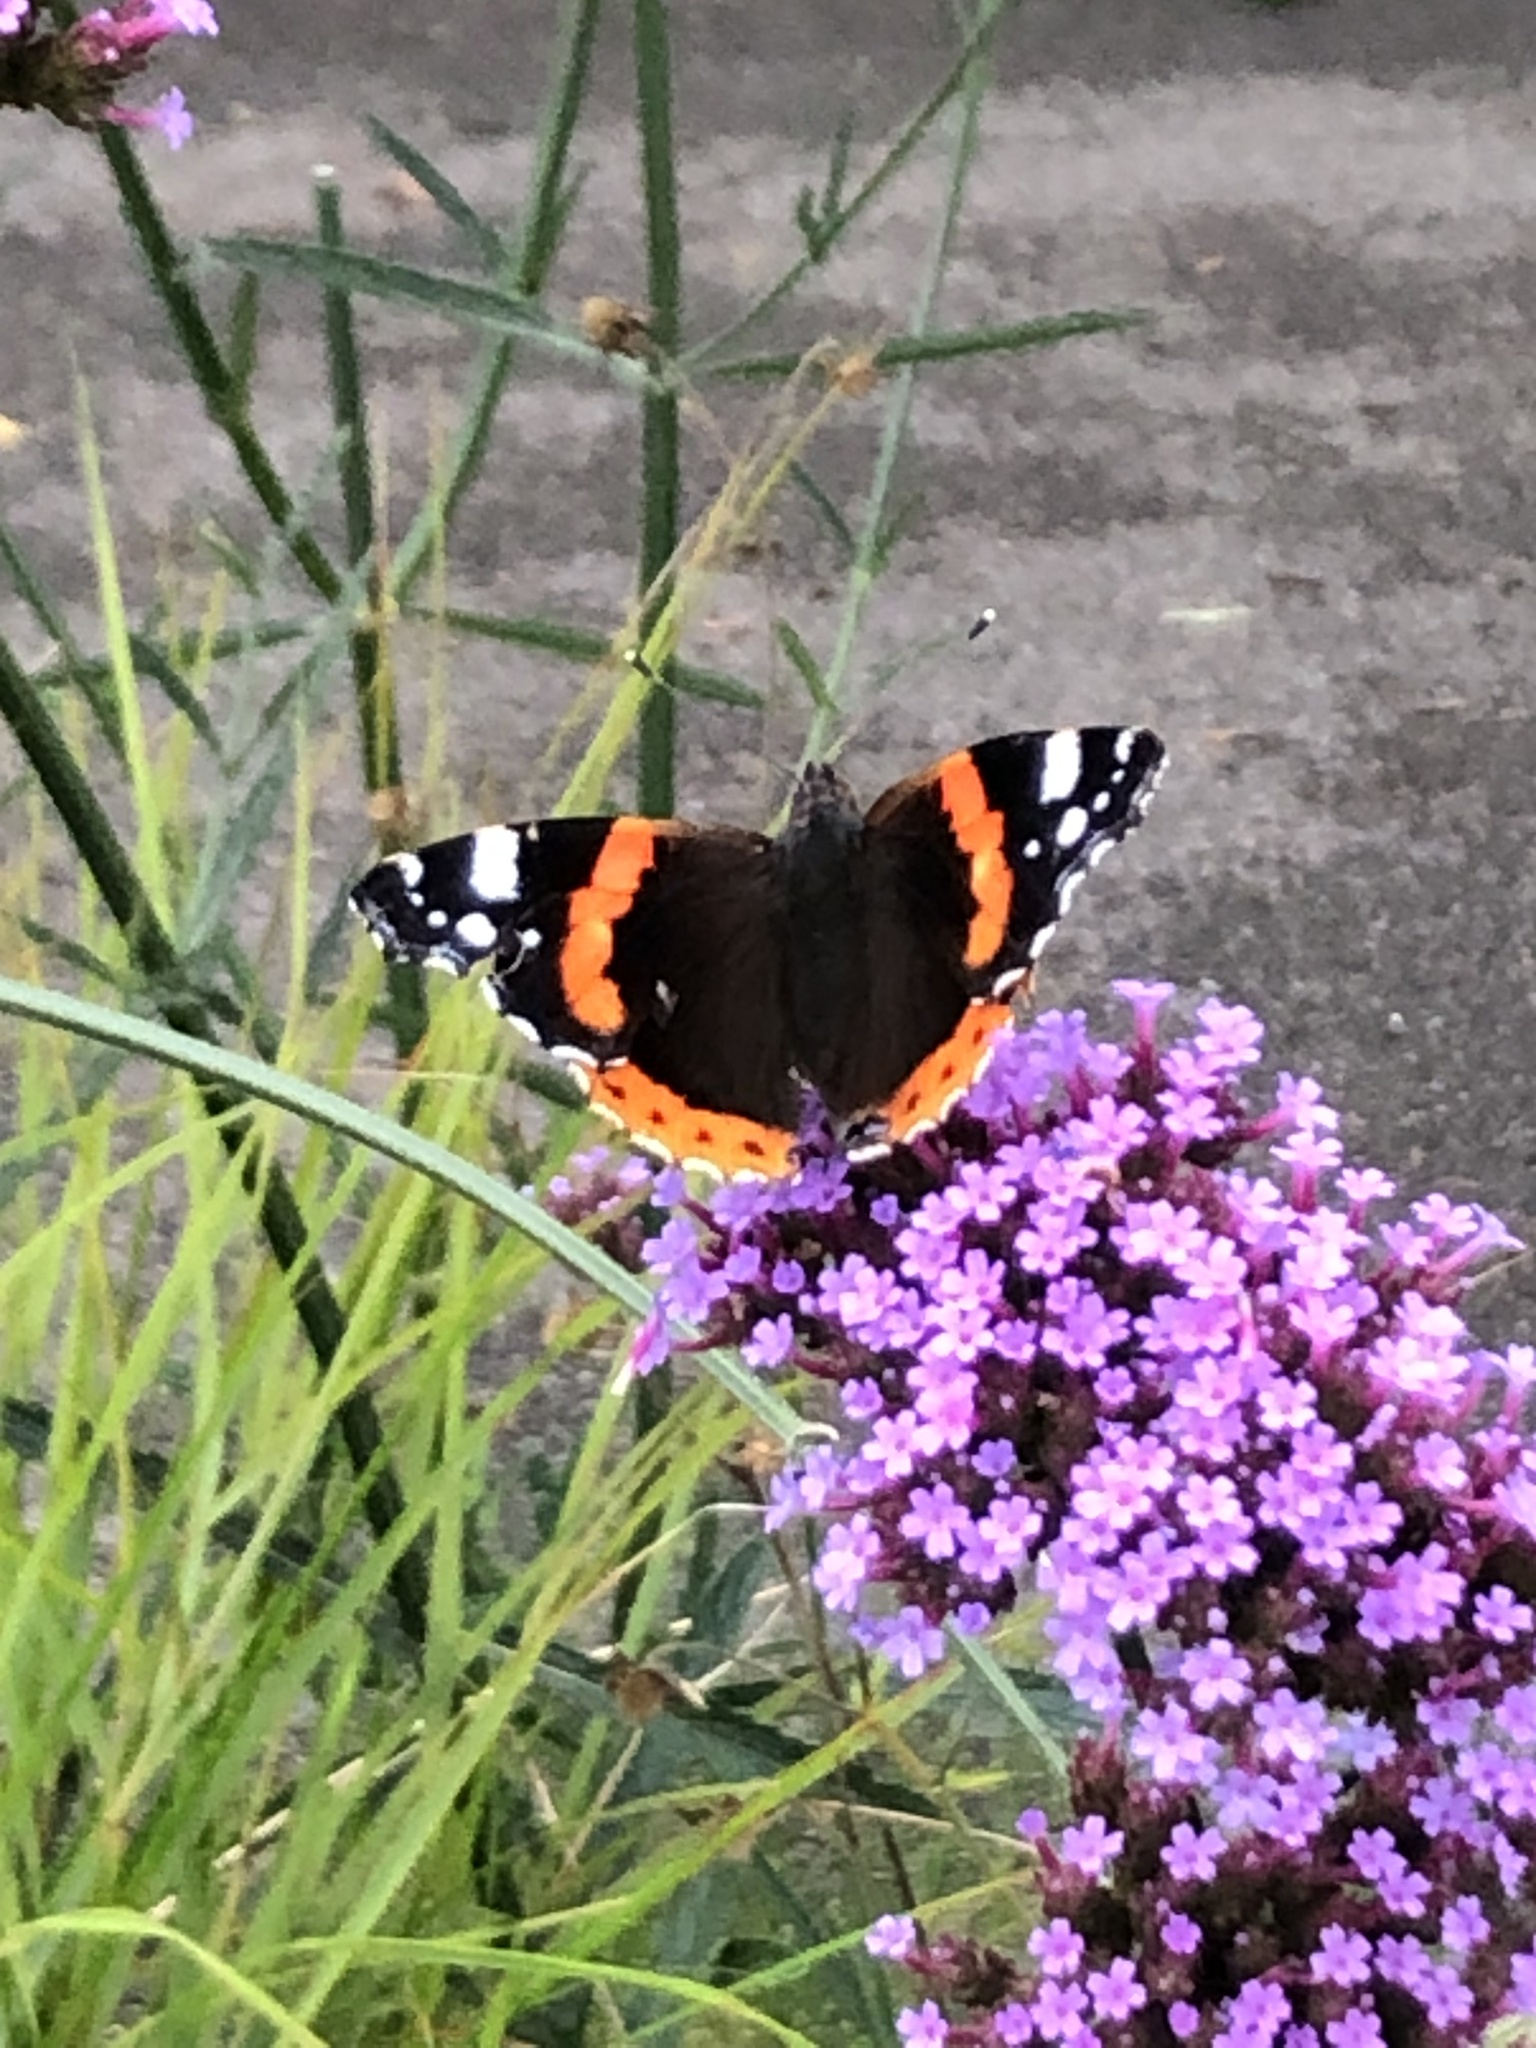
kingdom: Animalia
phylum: Arthropoda
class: Insecta
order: Lepidoptera
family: Nymphalidae
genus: Vanessa
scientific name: Vanessa atalanta
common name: Red admiral
